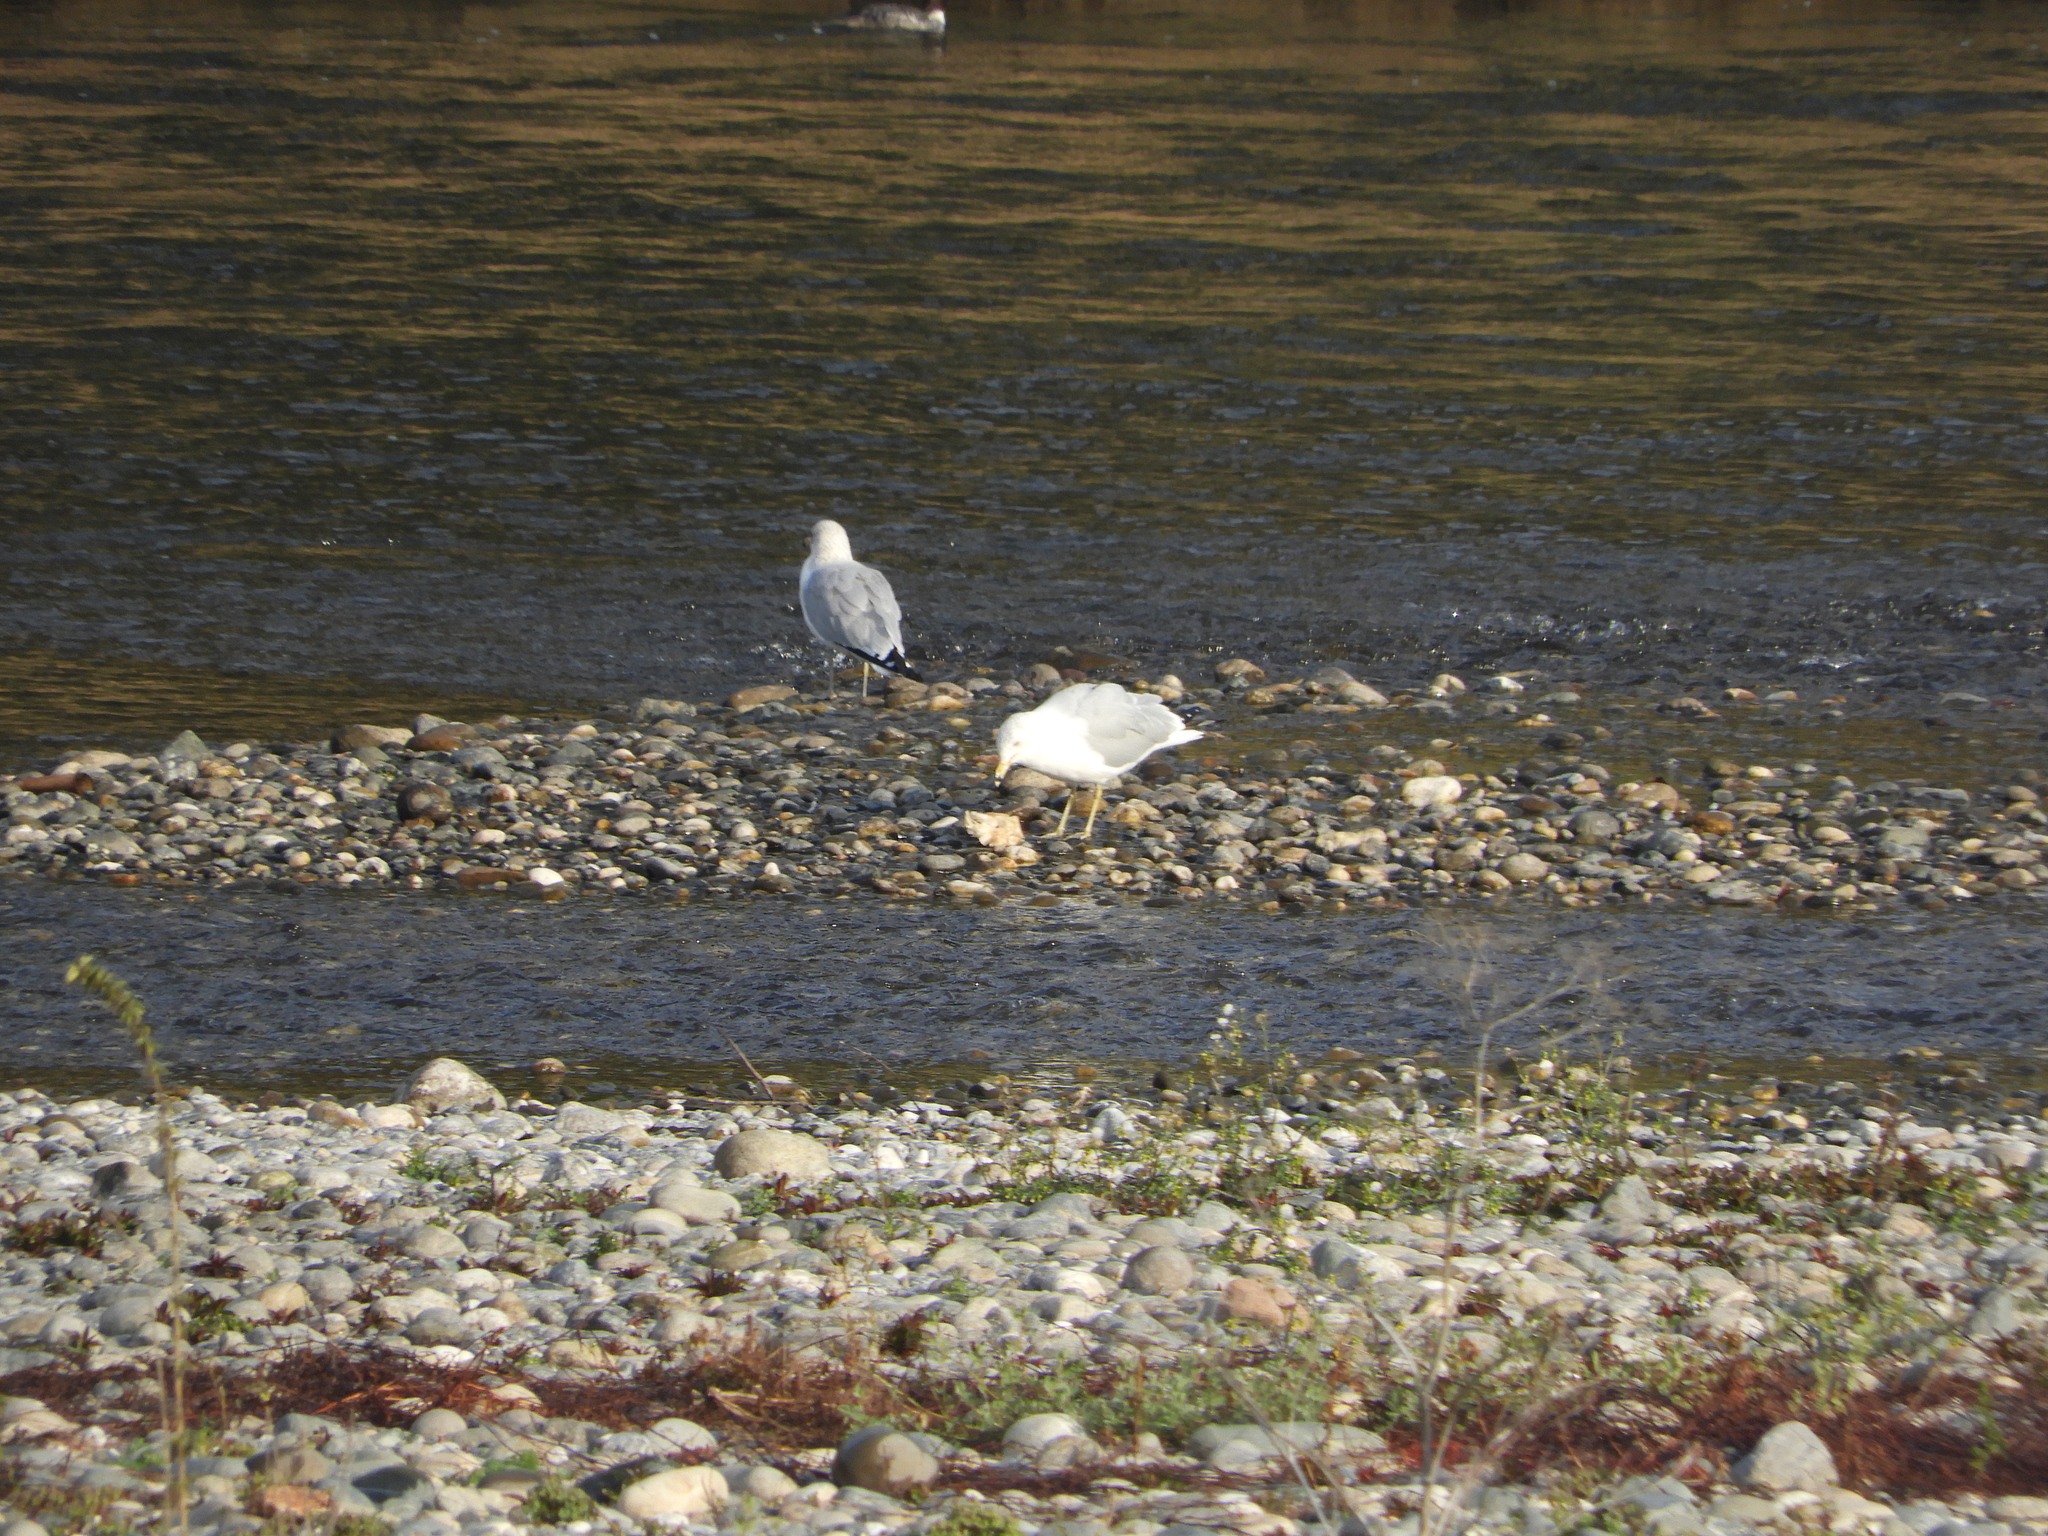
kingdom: Animalia
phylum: Chordata
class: Aves
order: Charadriiformes
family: Laridae
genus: Larus
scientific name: Larus delawarensis
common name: Ring-billed gull
